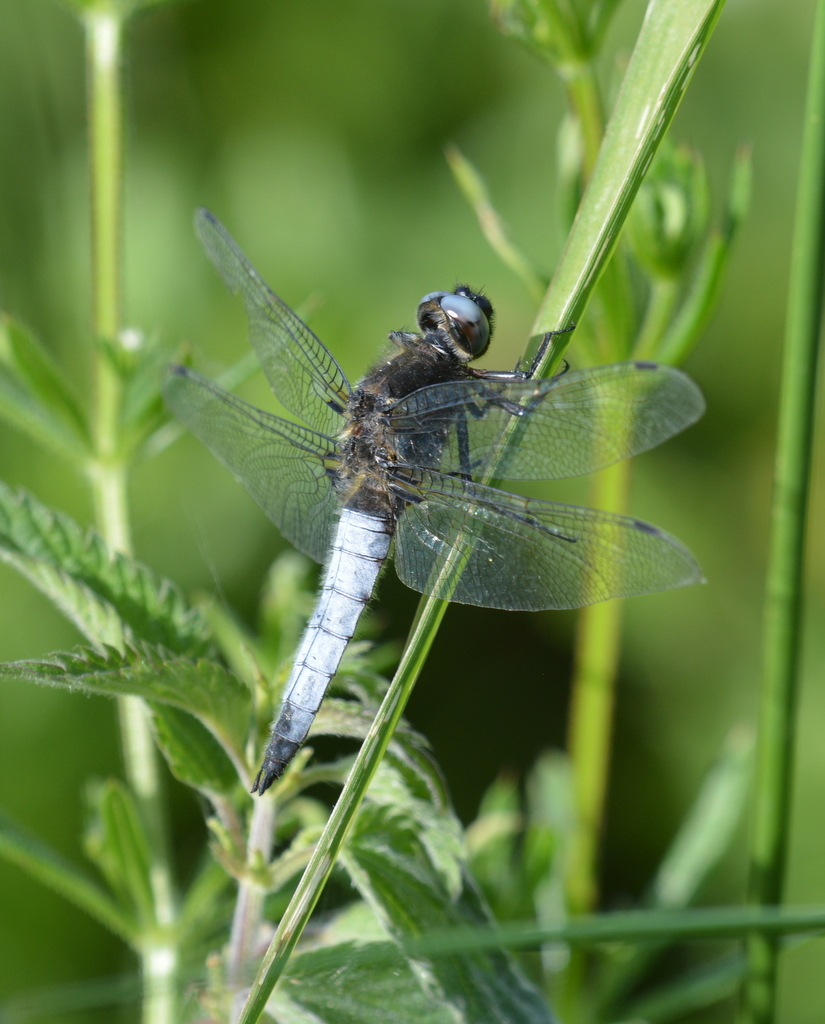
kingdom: Animalia
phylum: Arthropoda
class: Insecta
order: Odonata
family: Libellulidae
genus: Libellula
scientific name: Libellula fulva
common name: Blue chaser
